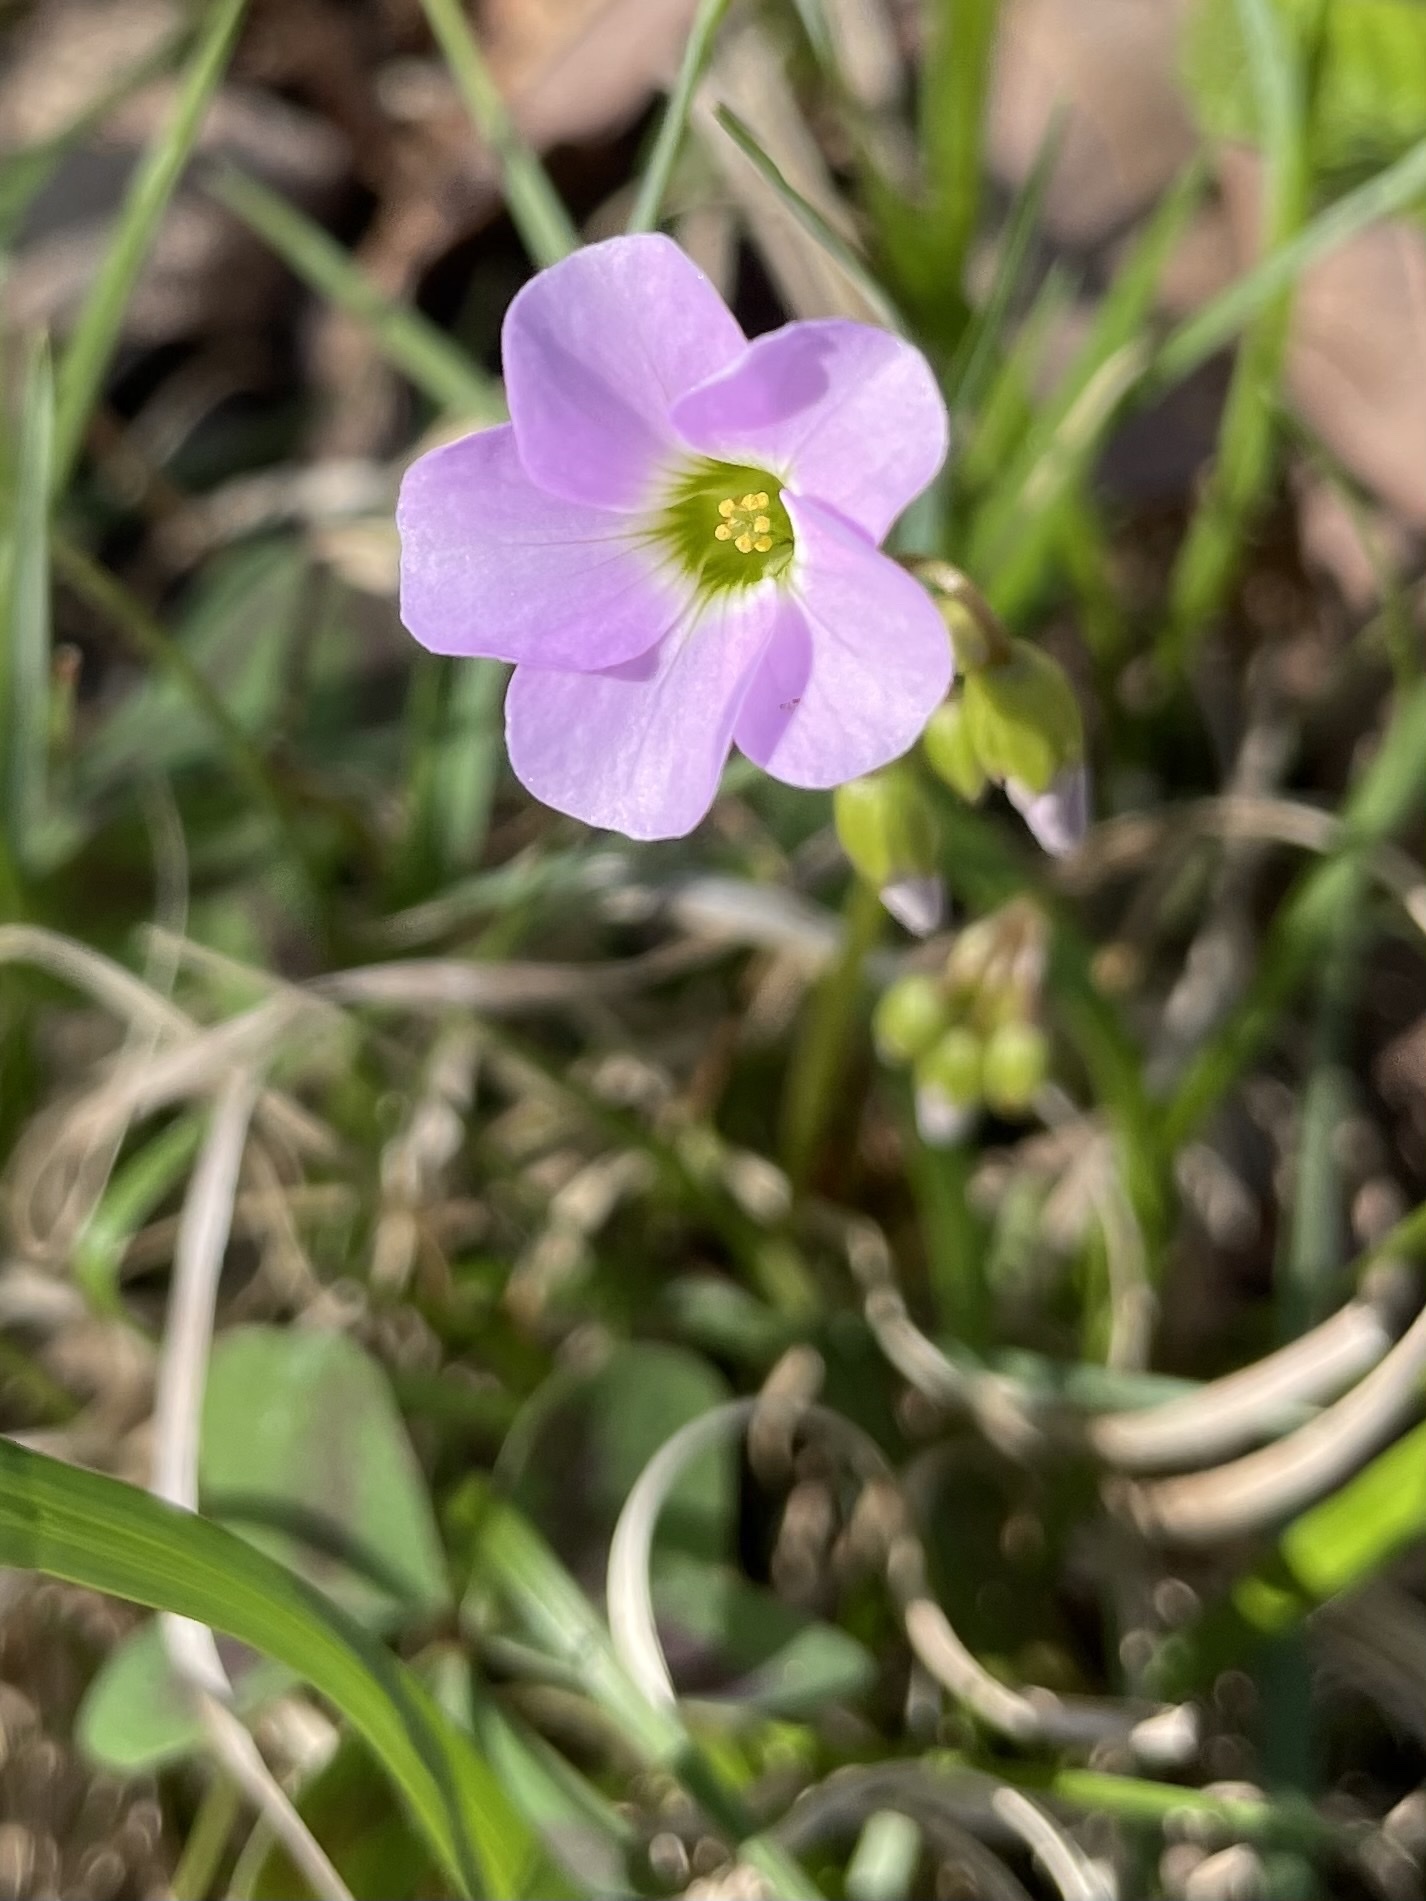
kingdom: Plantae
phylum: Tracheophyta
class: Magnoliopsida
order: Oxalidales
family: Oxalidaceae
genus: Oxalis
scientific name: Oxalis violacea
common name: Violet wood-sorrel
